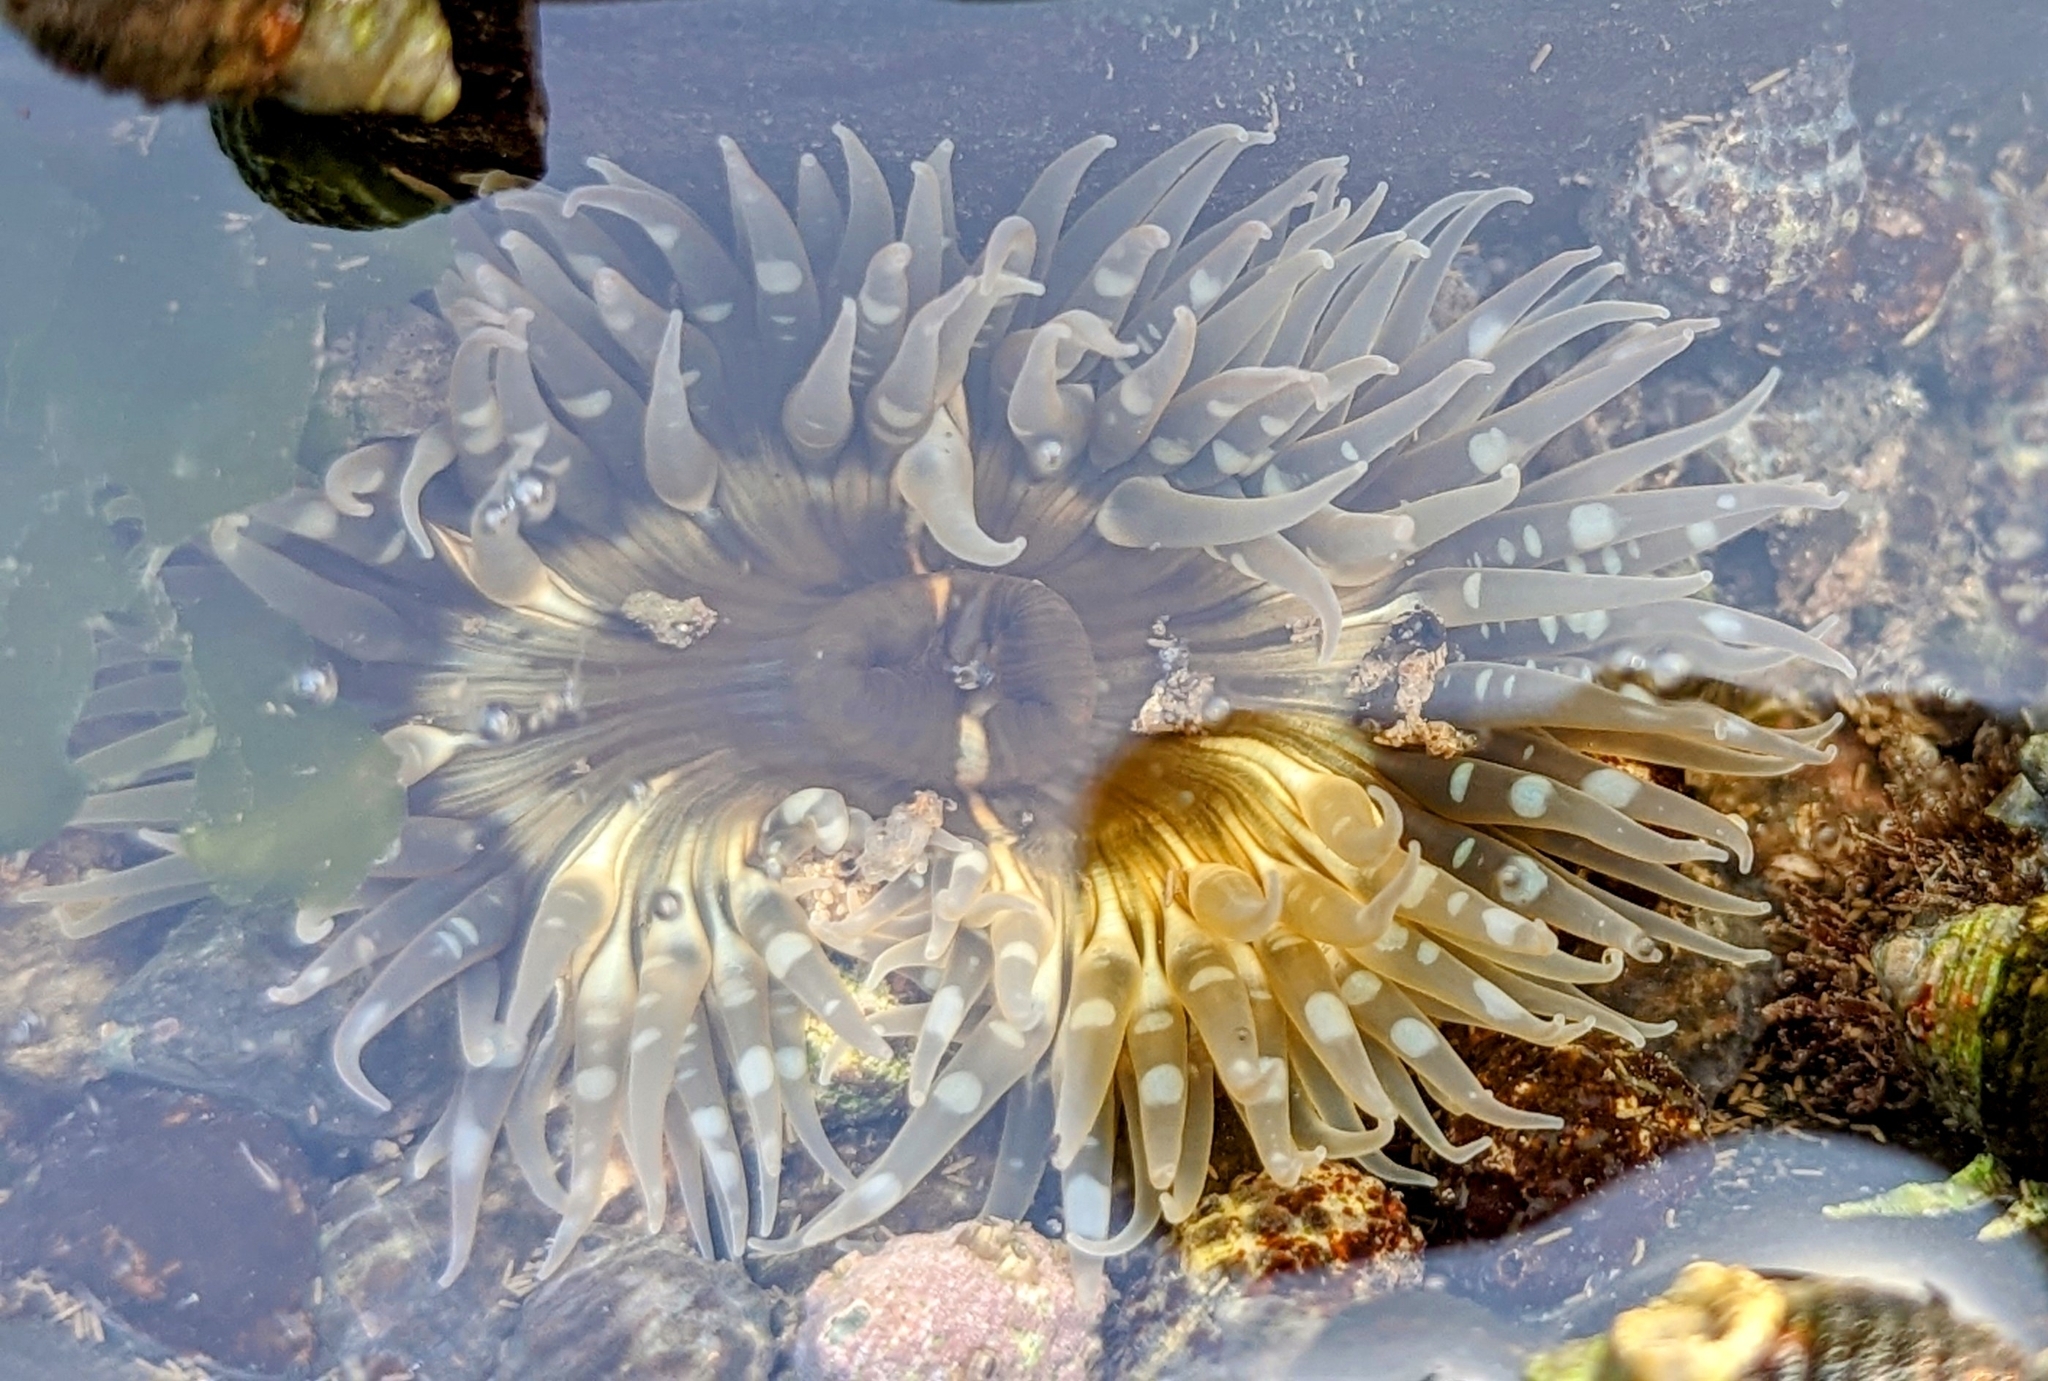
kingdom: Animalia
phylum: Cnidaria
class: Anthozoa
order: Actiniaria
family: Actiniidae
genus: Anthopleura
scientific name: Anthopleura anjunae
